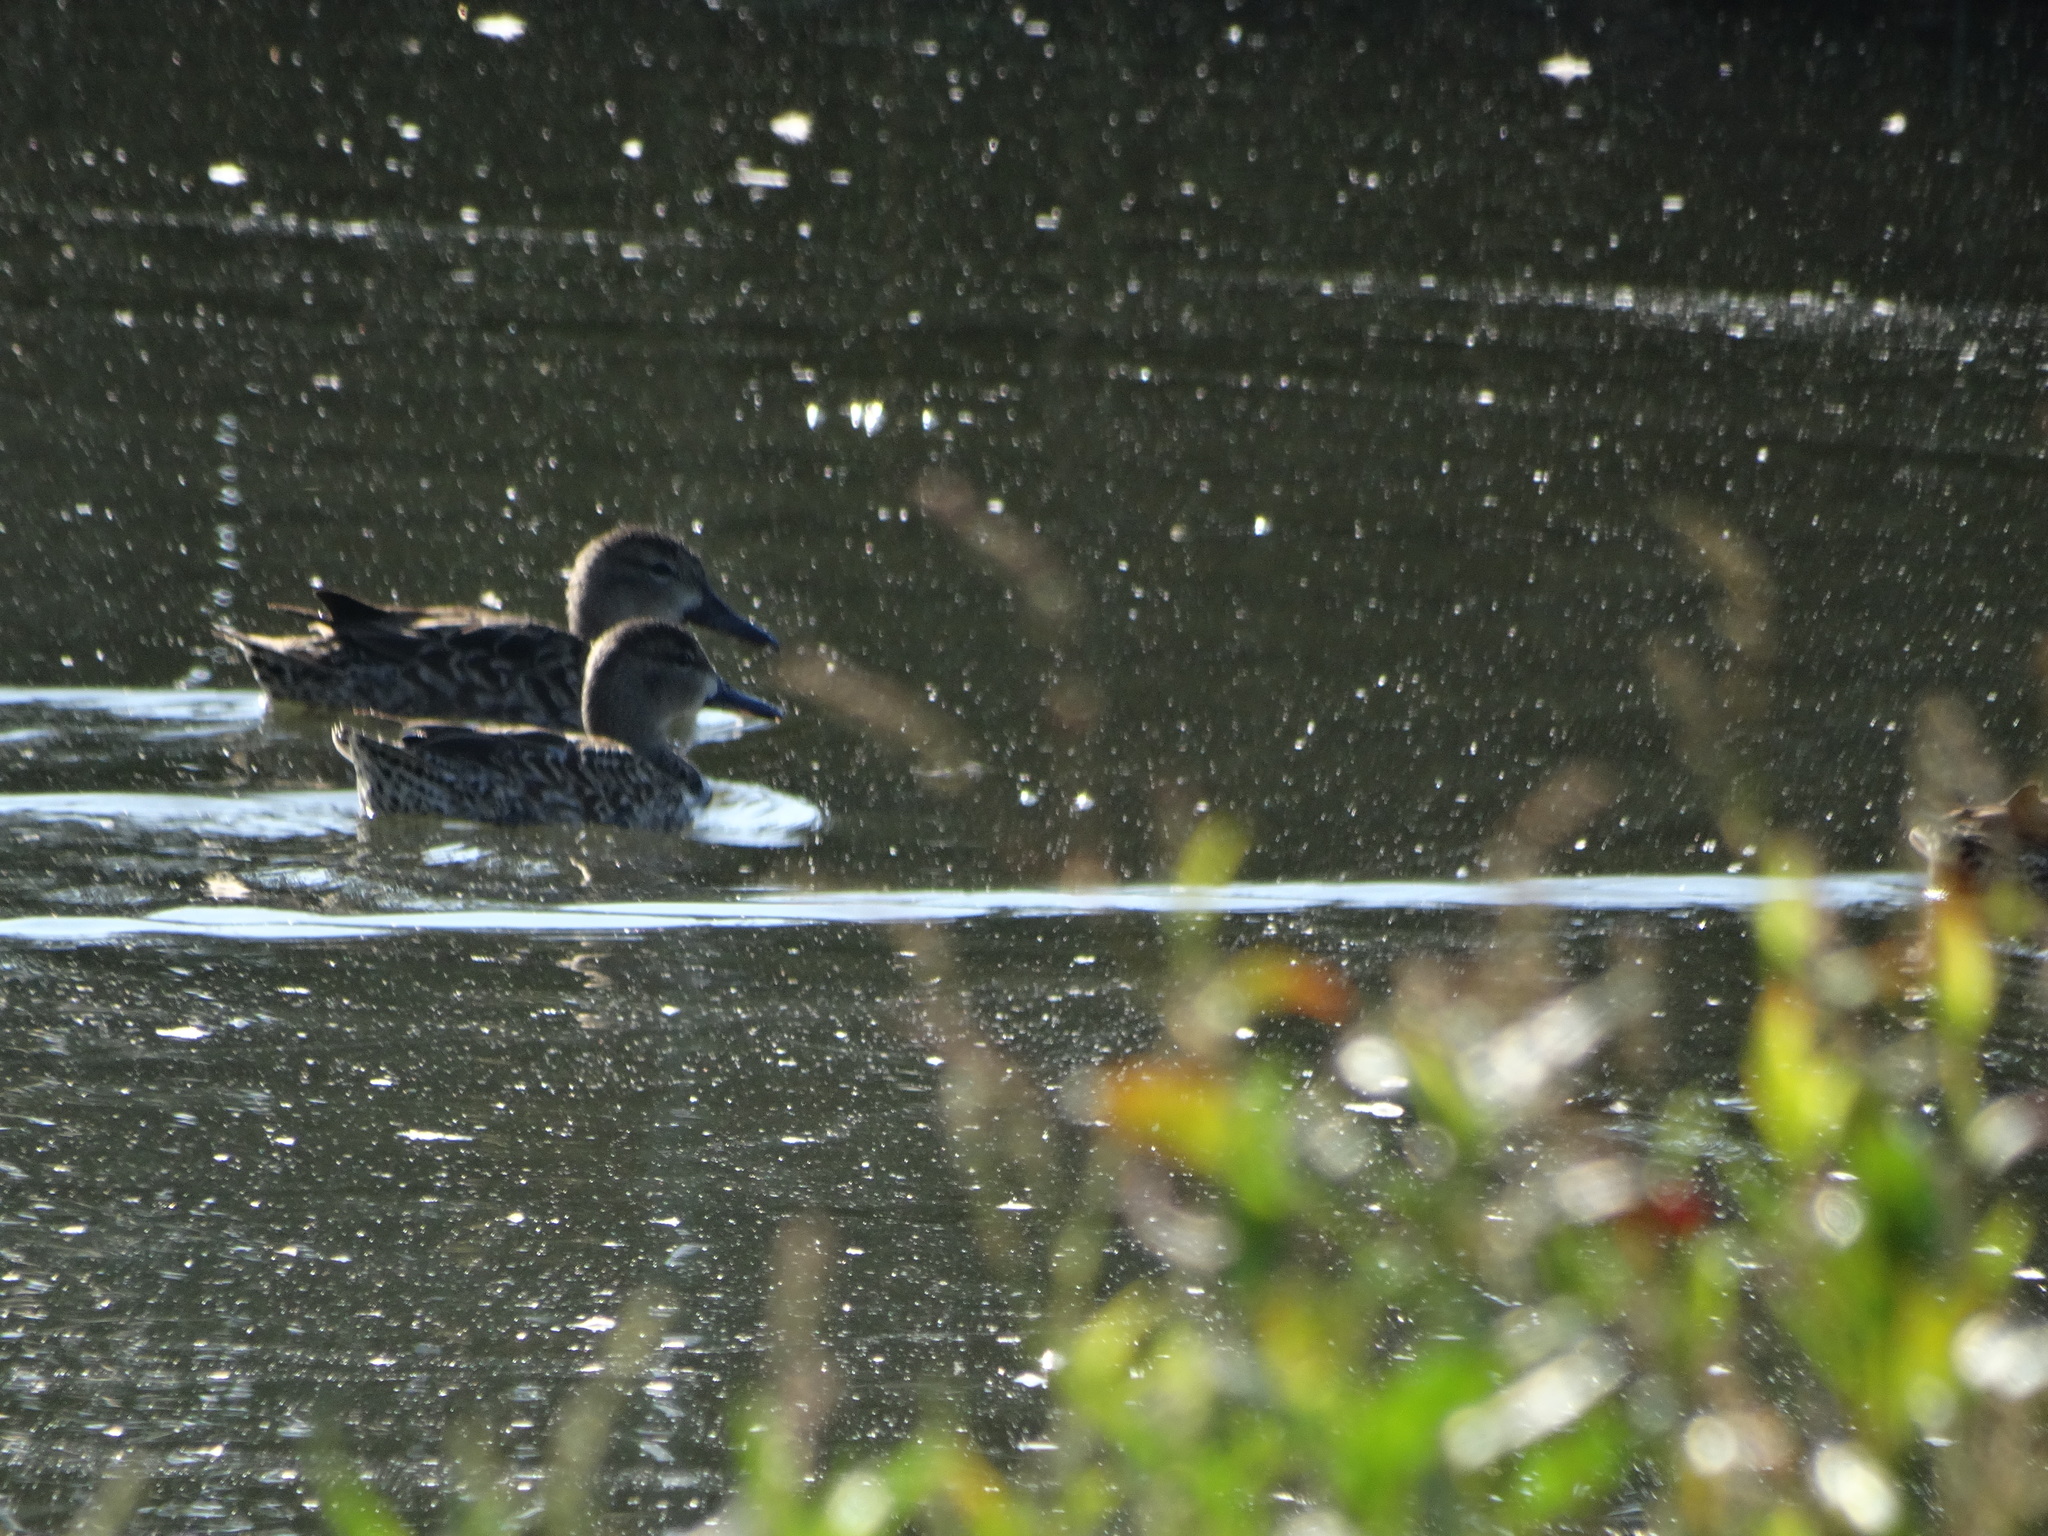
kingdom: Animalia
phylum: Chordata
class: Aves
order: Anseriformes
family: Anatidae
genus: Spatula
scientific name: Spatula discors
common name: Blue-winged teal
